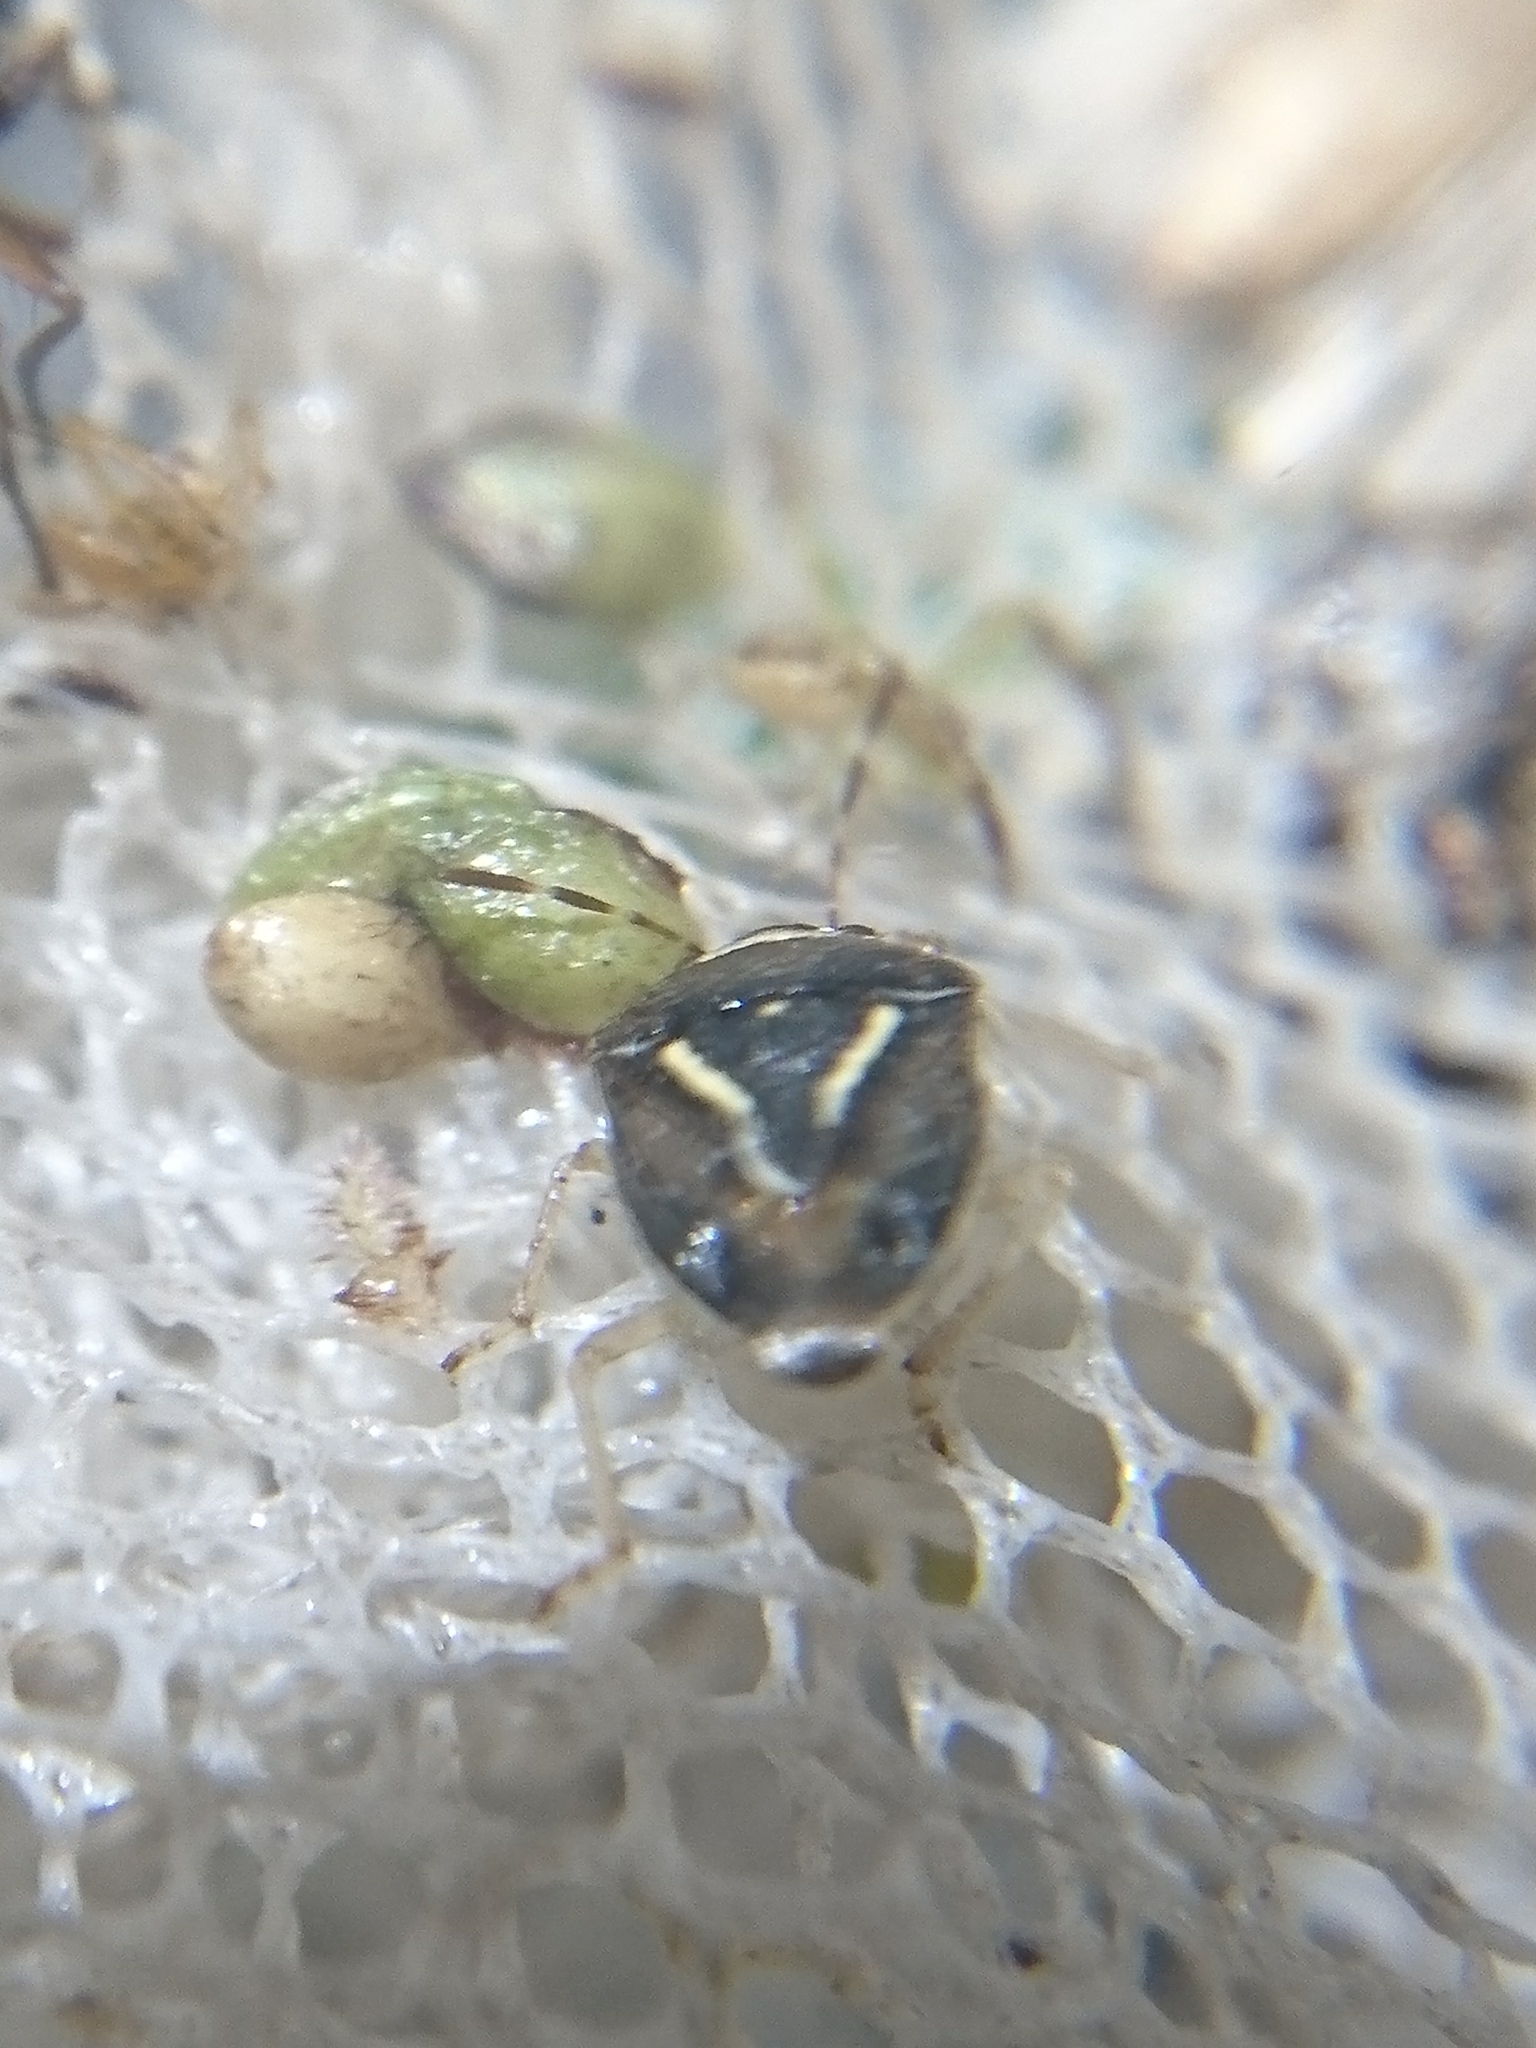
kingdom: Animalia
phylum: Arthropoda
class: Insecta
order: Hemiptera
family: Pentatomidae
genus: Mormidea
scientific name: Mormidea lugens
